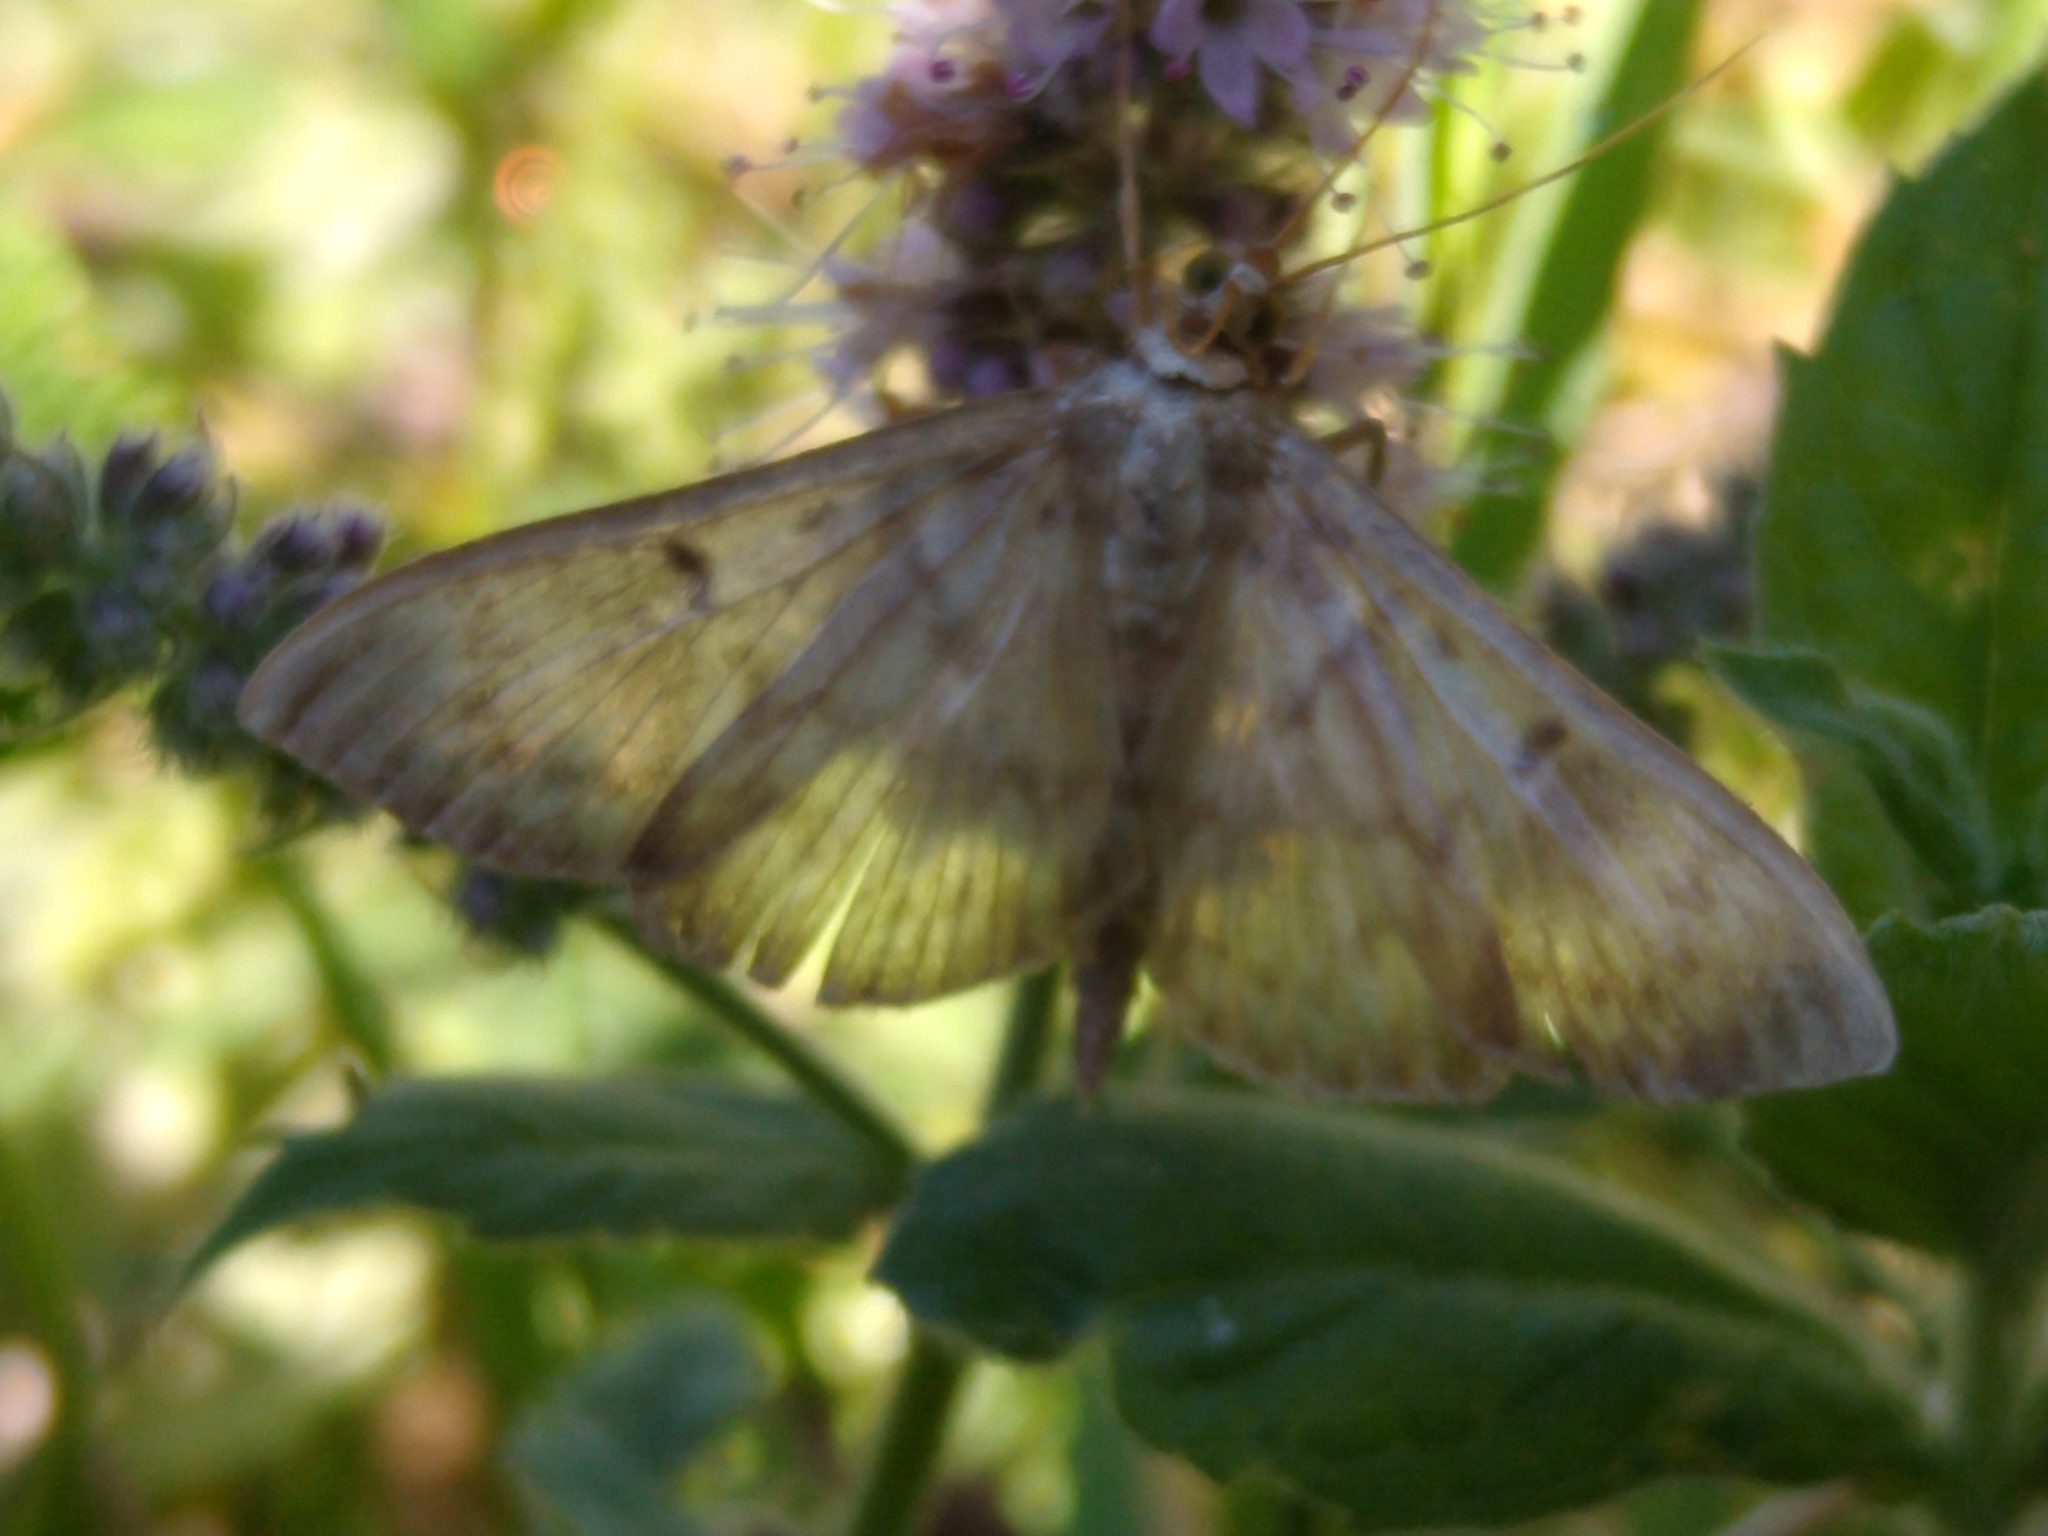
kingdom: Animalia
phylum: Arthropoda
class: Insecta
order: Lepidoptera
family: Crambidae
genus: Patania
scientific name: Patania ruralis
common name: Mother of pearl
